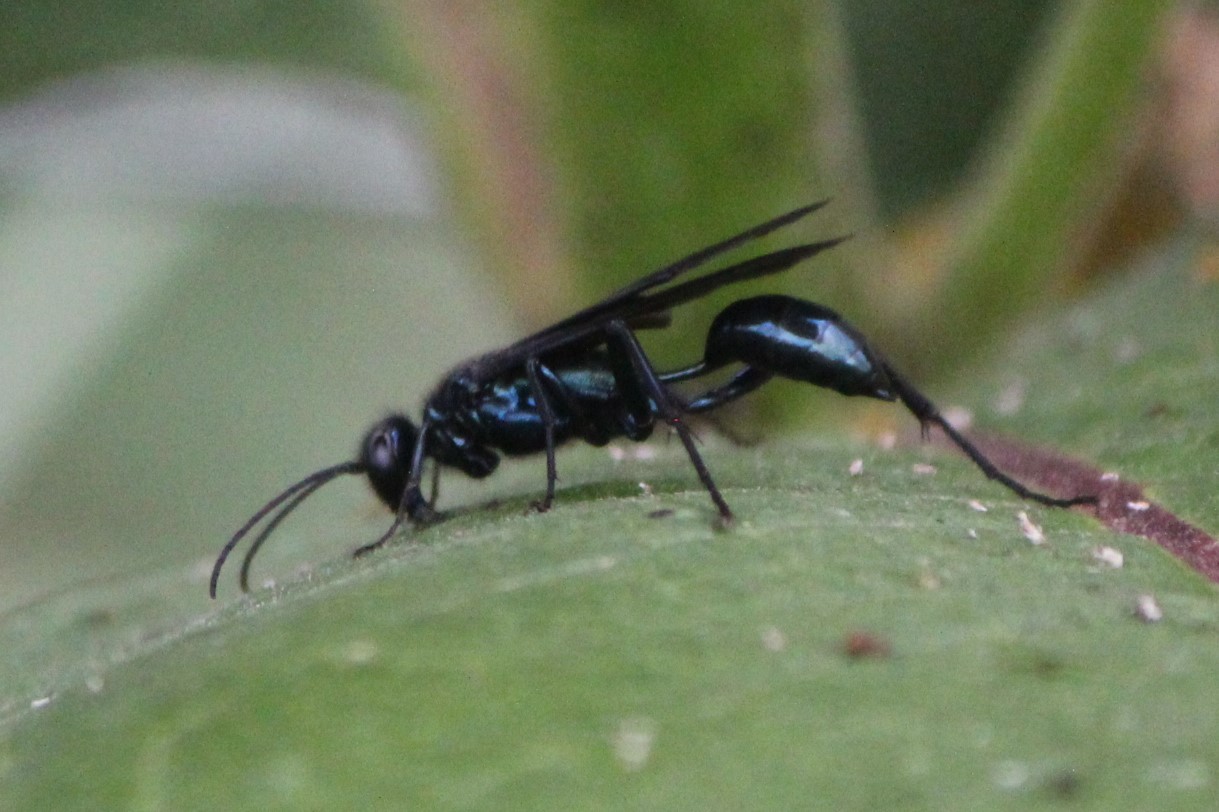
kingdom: Animalia
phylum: Arthropoda
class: Insecta
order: Hymenoptera
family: Sphecidae
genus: Chalybion
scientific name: Chalybion californicum
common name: Mud dauber
